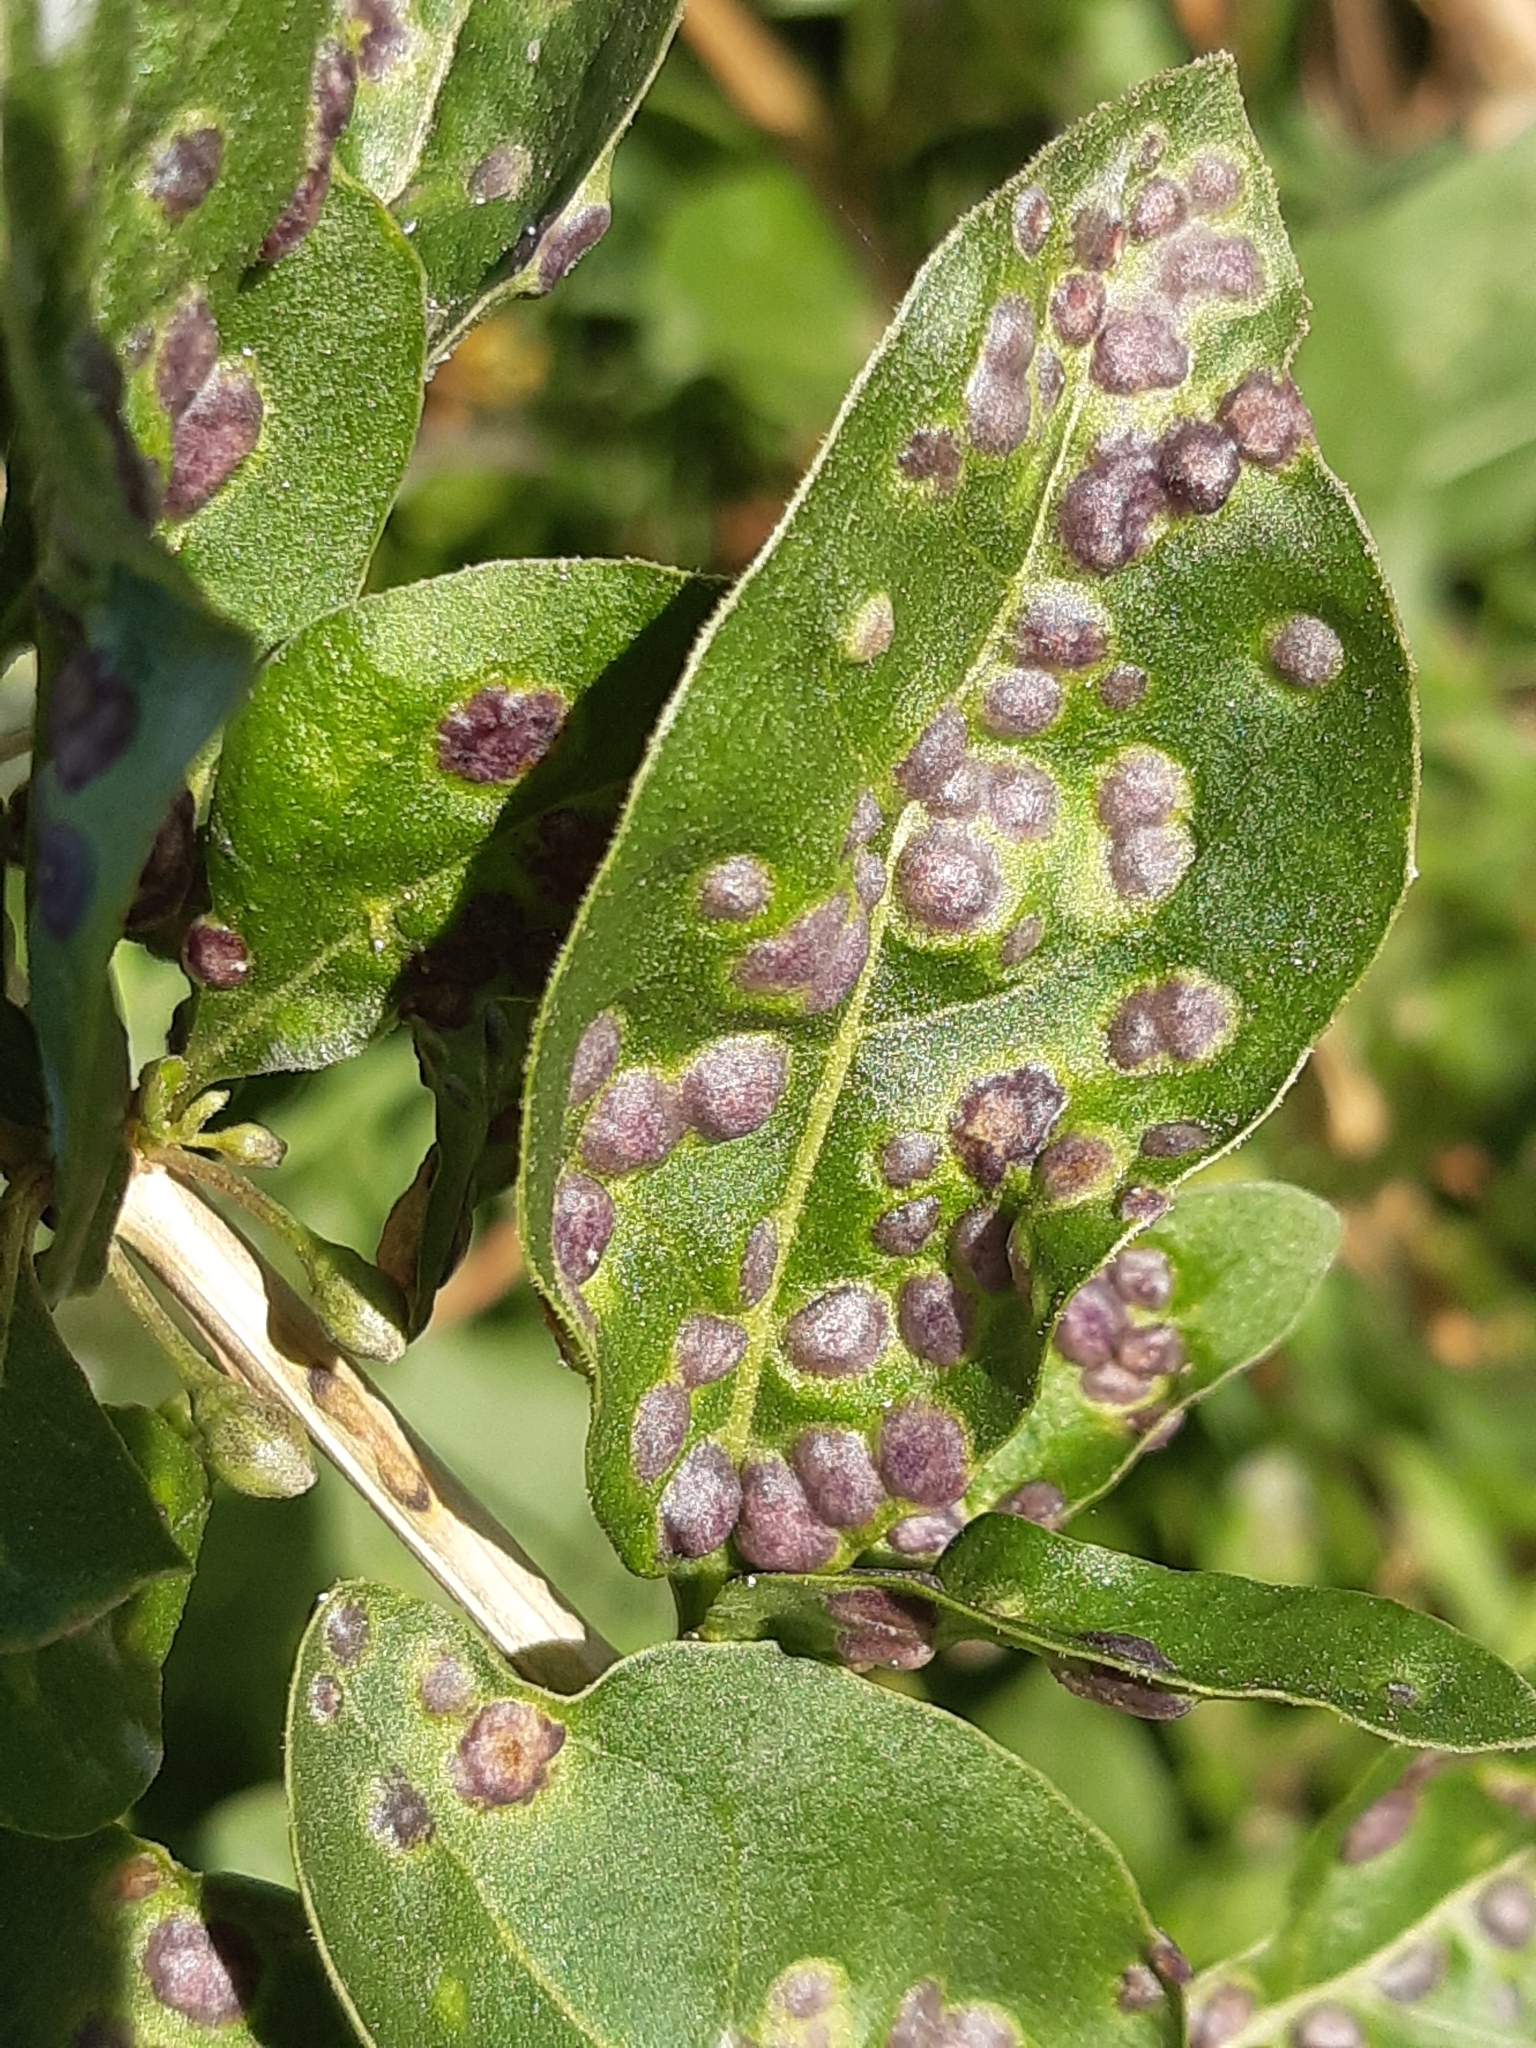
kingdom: Animalia
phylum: Arthropoda
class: Arachnida
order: Trombidiformes
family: Eriophyidae
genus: Aceria
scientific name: Aceria kuko
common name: Goji gall mite
